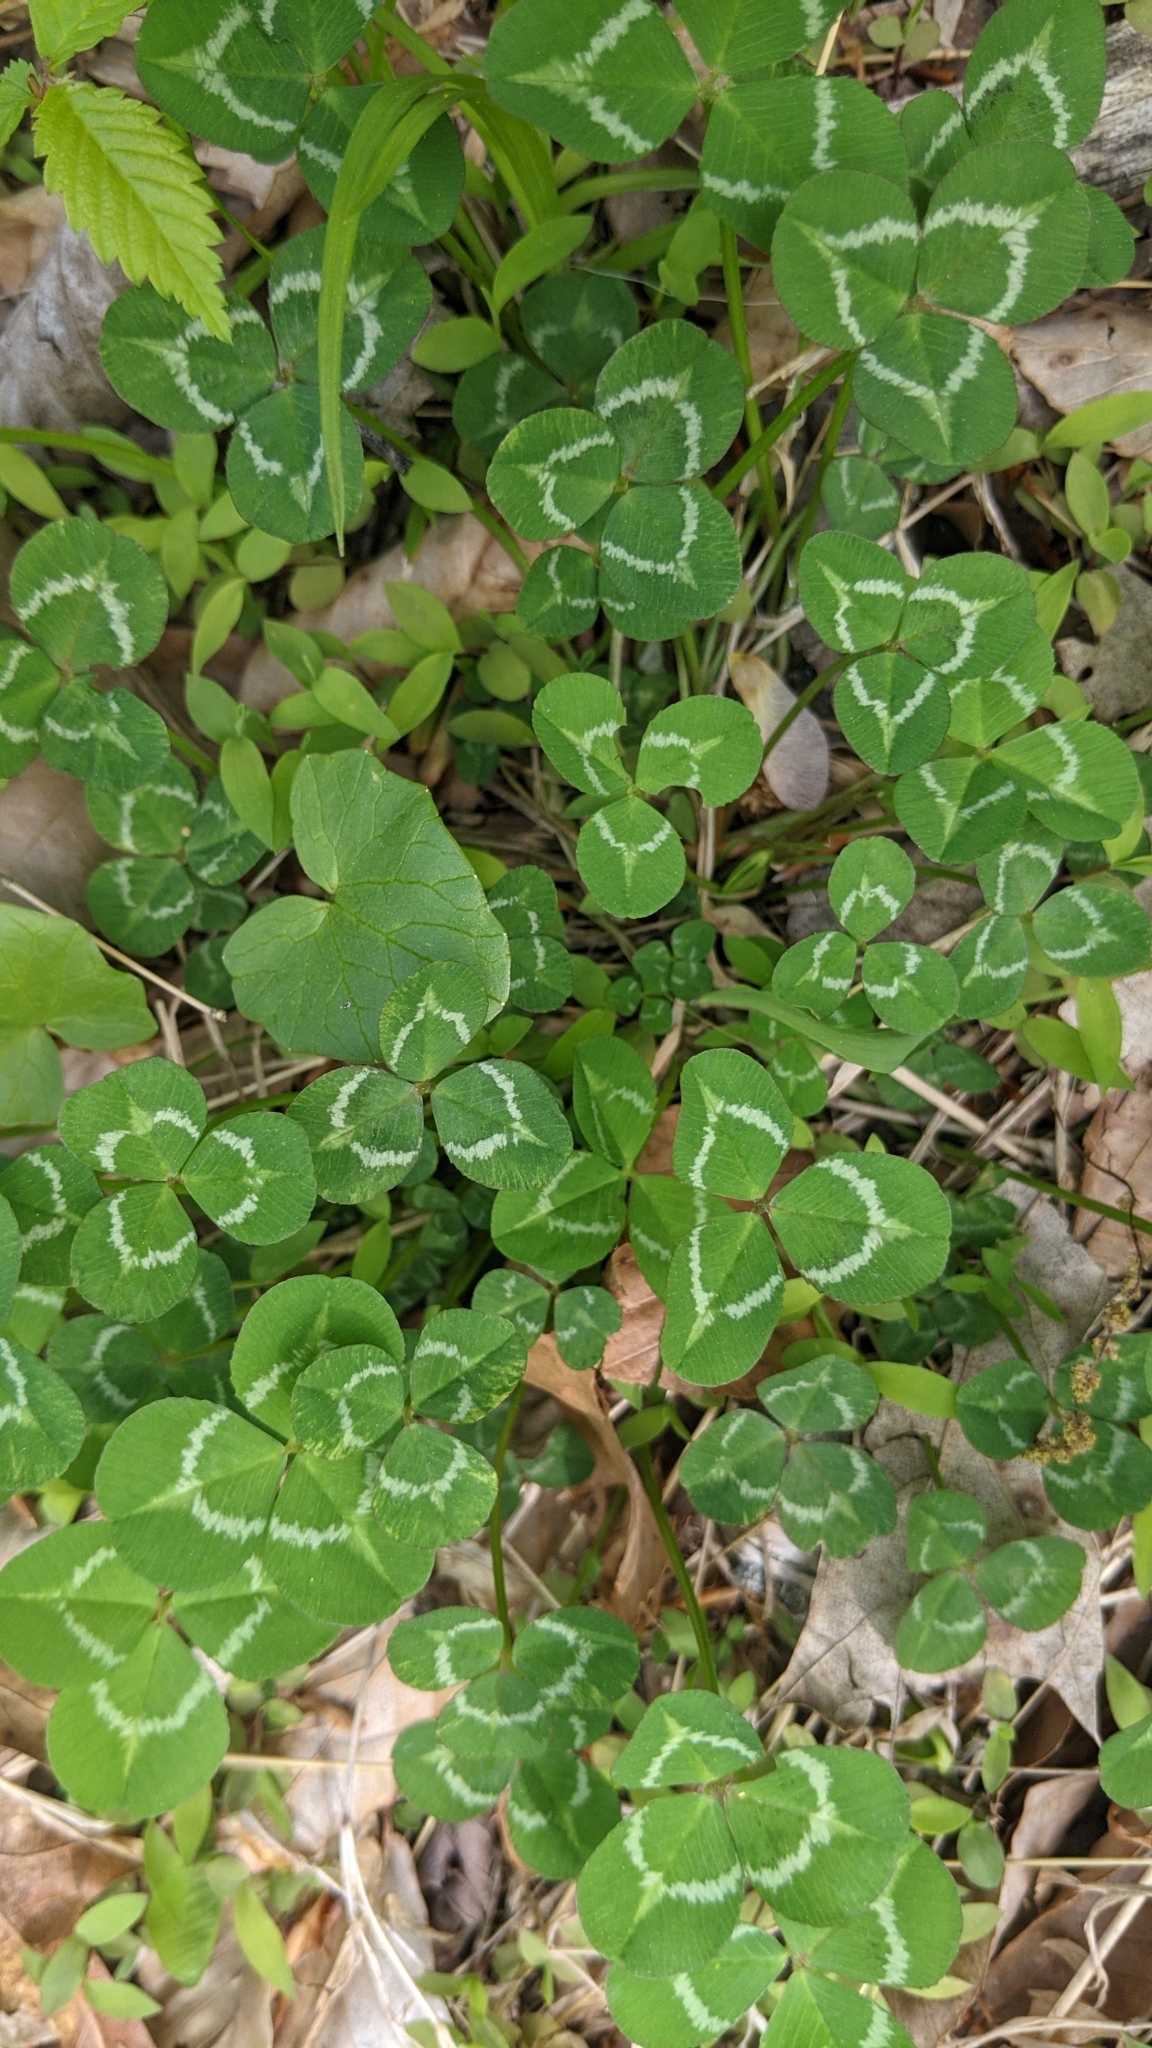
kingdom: Plantae
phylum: Tracheophyta
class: Magnoliopsida
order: Fabales
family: Fabaceae
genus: Trifolium
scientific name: Trifolium repens
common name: White clover
